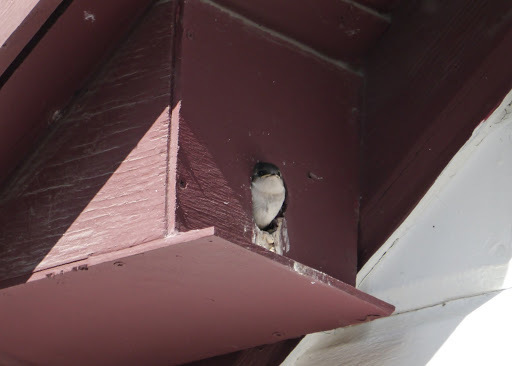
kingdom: Animalia
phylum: Chordata
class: Aves
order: Passeriformes
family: Hirundinidae
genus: Tachycineta
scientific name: Tachycineta bicolor
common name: Tree swallow
